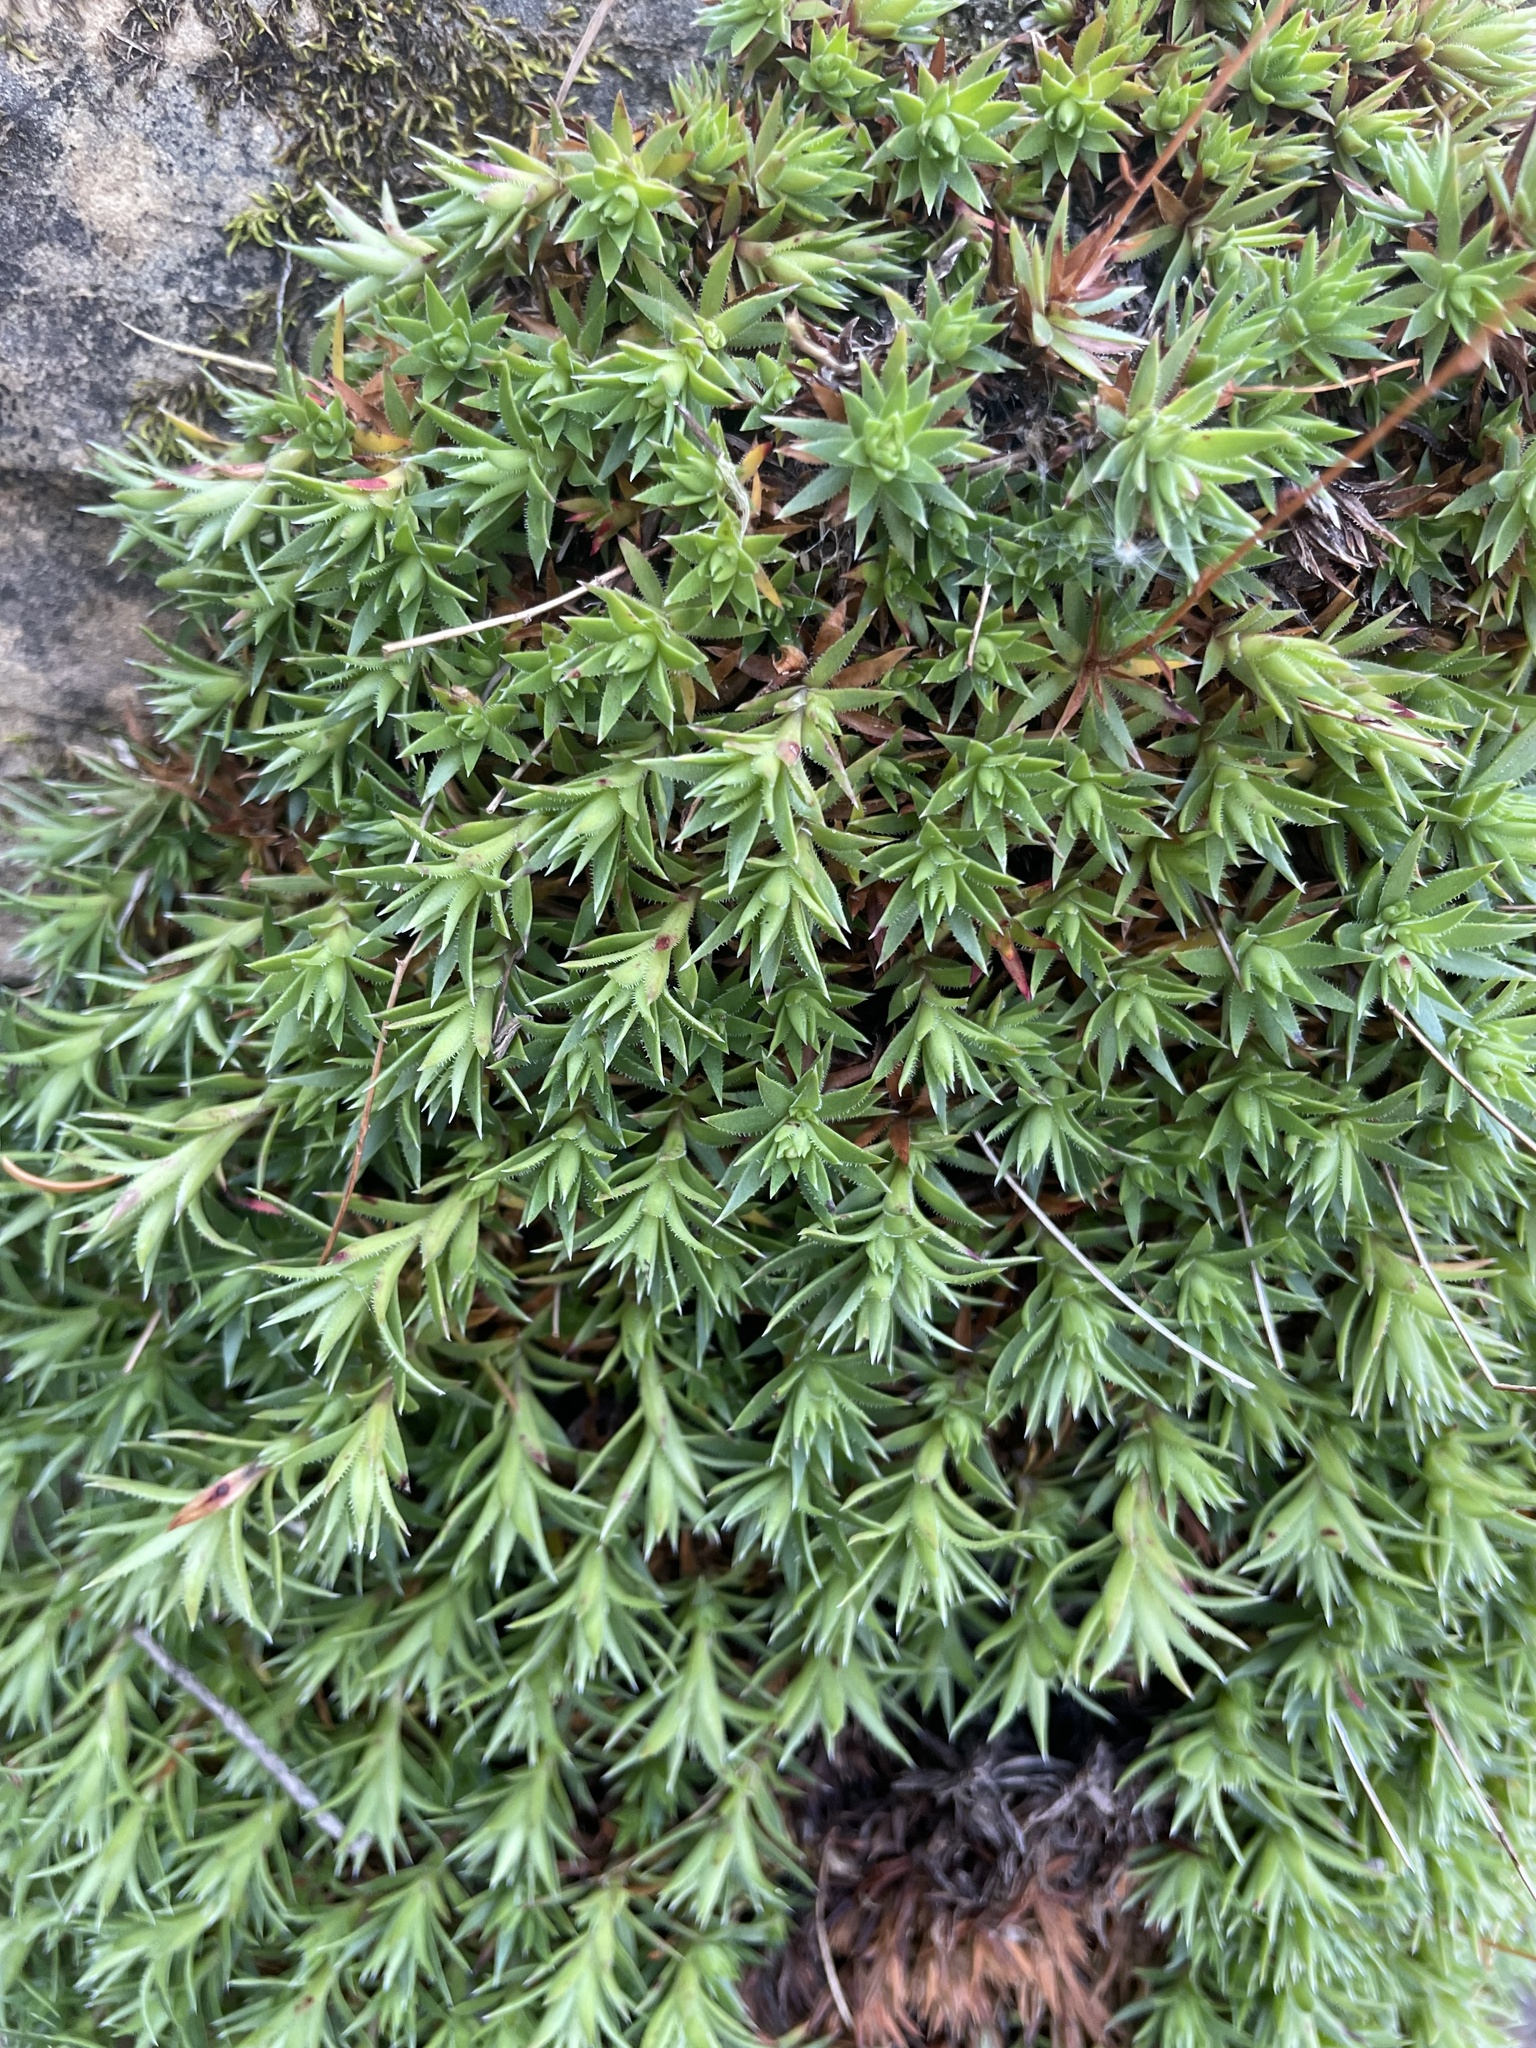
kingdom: Plantae
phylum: Tracheophyta
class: Magnoliopsida
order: Saxifragales
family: Saxifragaceae
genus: Saxifraga
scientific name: Saxifraga bronchialis
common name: Matted saxifrage
